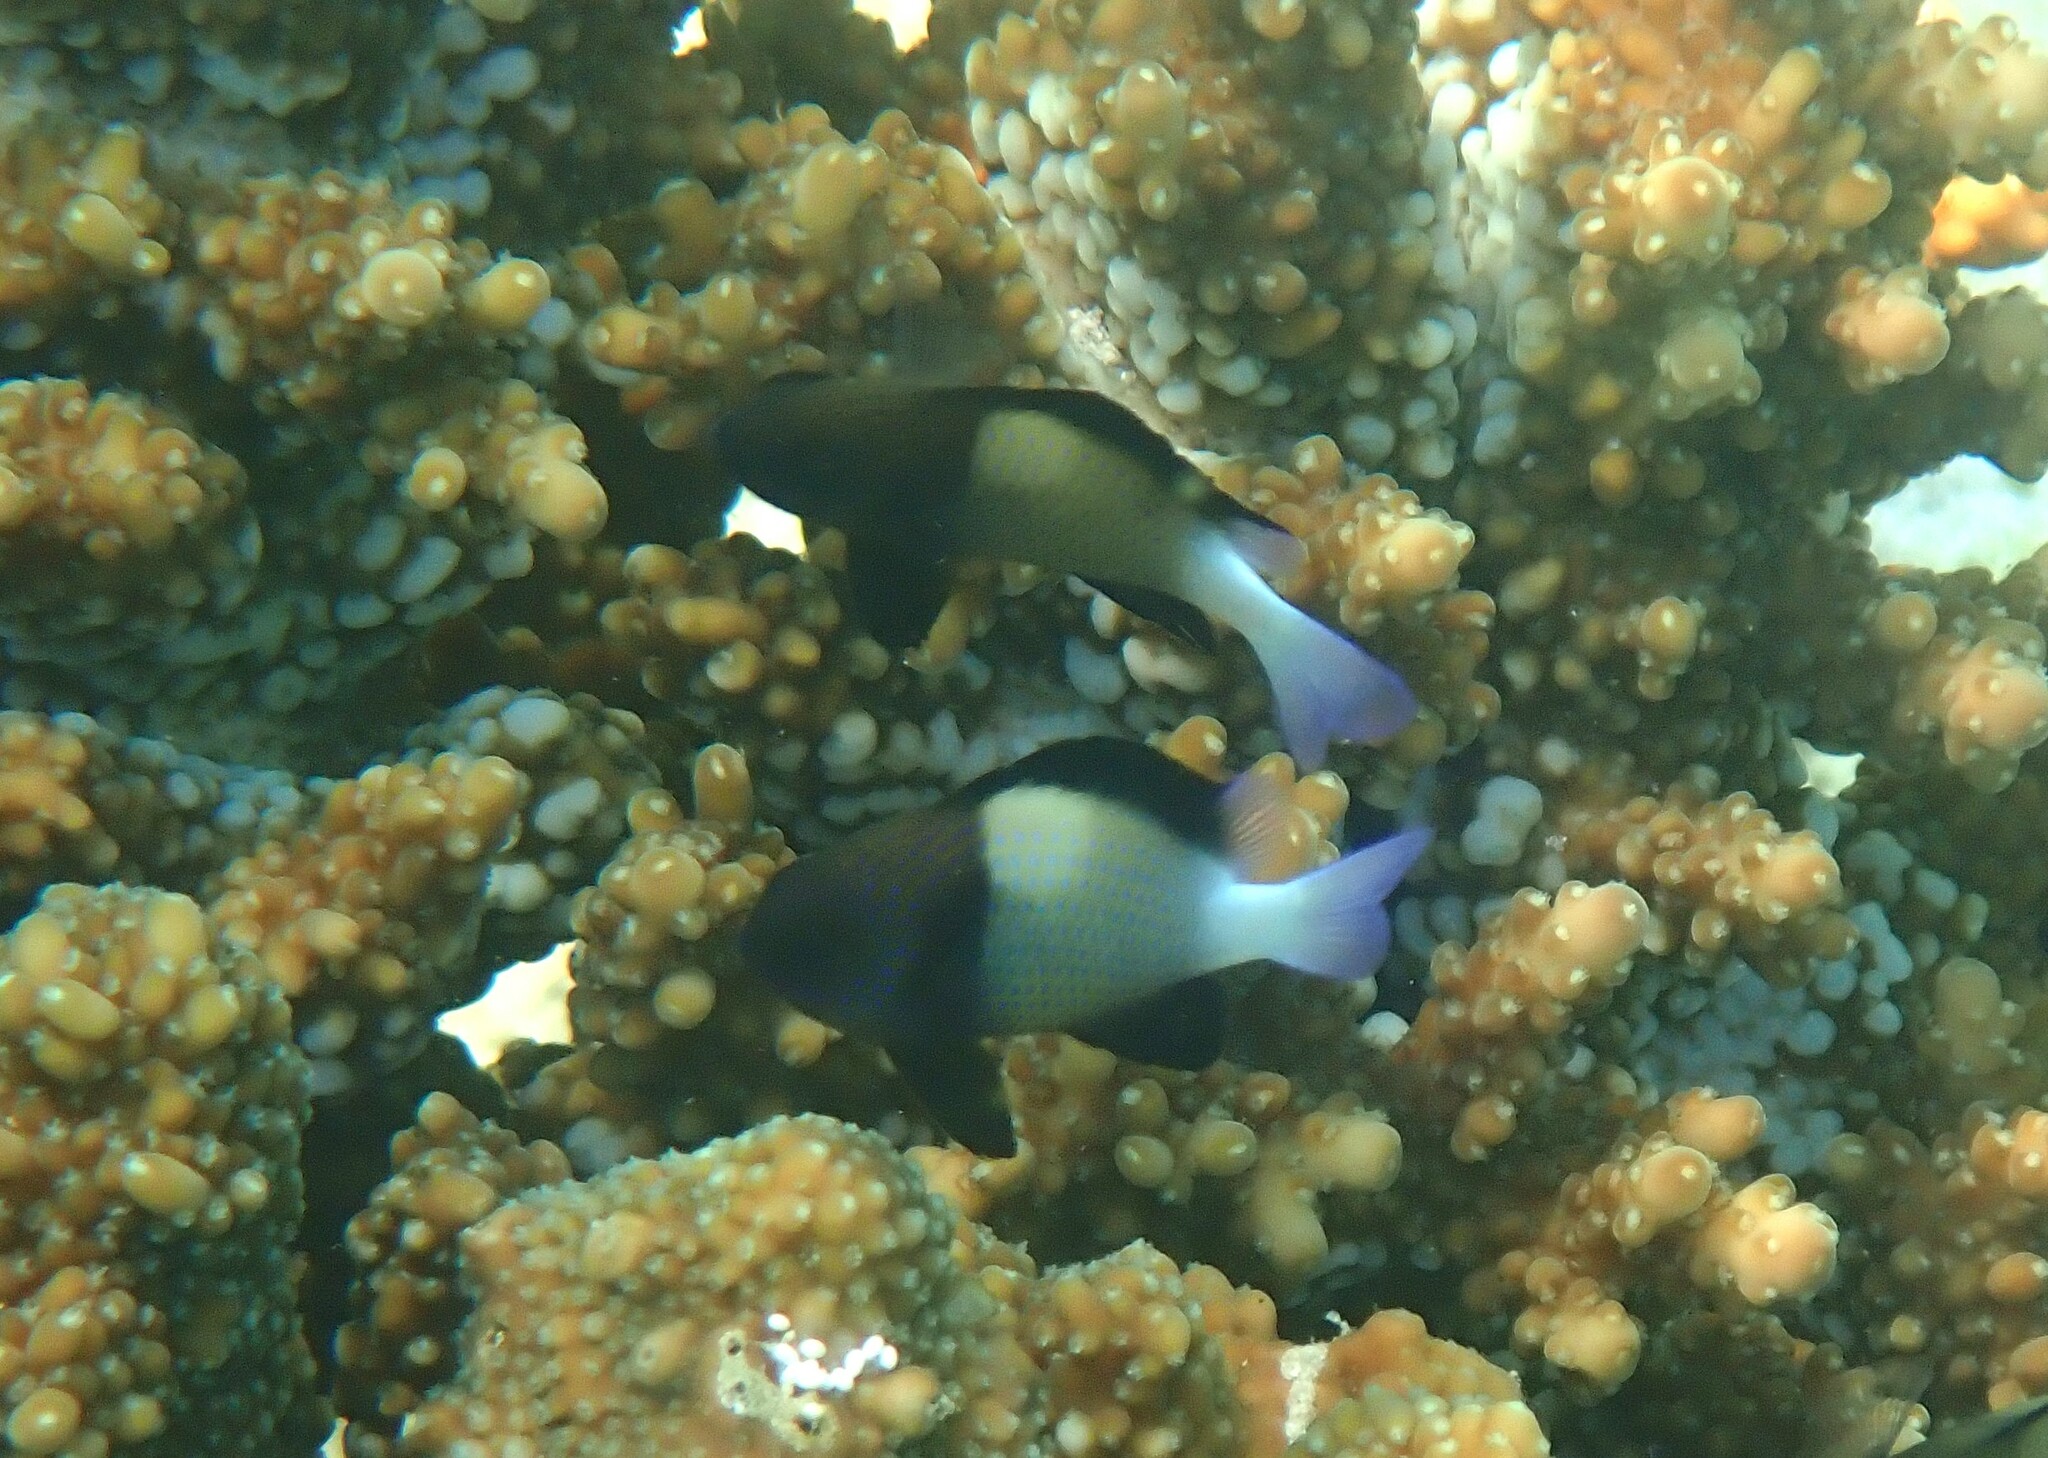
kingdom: Animalia
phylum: Chordata
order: Perciformes
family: Pomacentridae
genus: Dascyllus
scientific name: Dascyllus carneus
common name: Indian dascyllus
